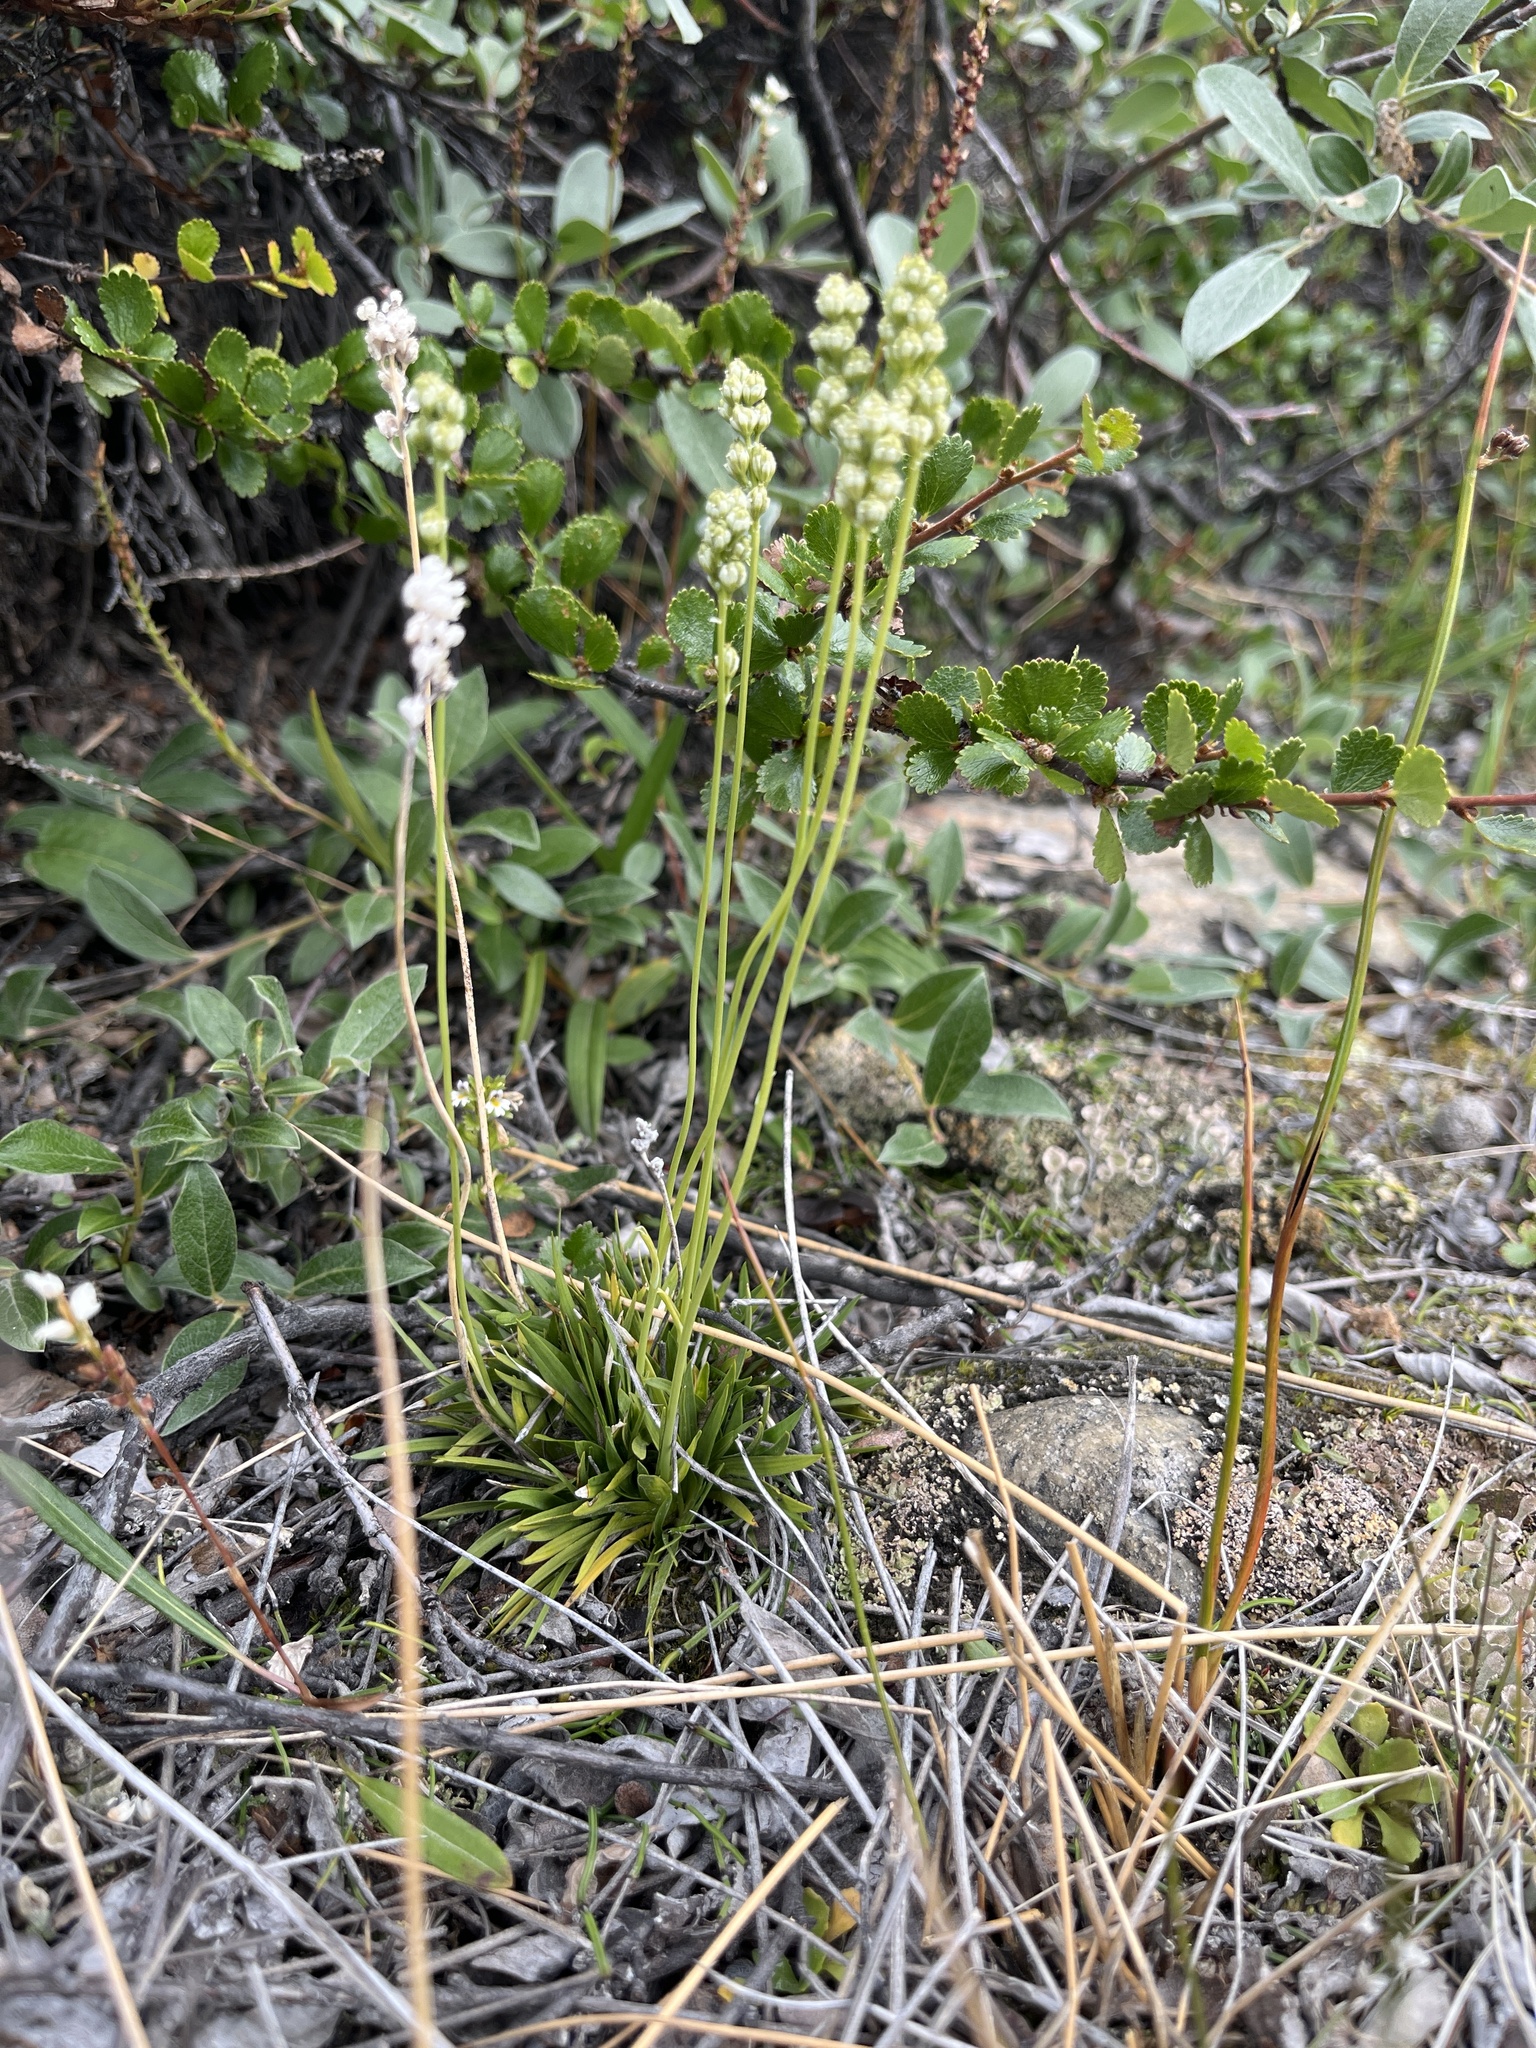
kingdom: Plantae
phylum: Tracheophyta
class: Liliopsida
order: Alismatales
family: Tofieldiaceae
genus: Tofieldia
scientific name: Tofieldia pusilla
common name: Scottish false asphodel
